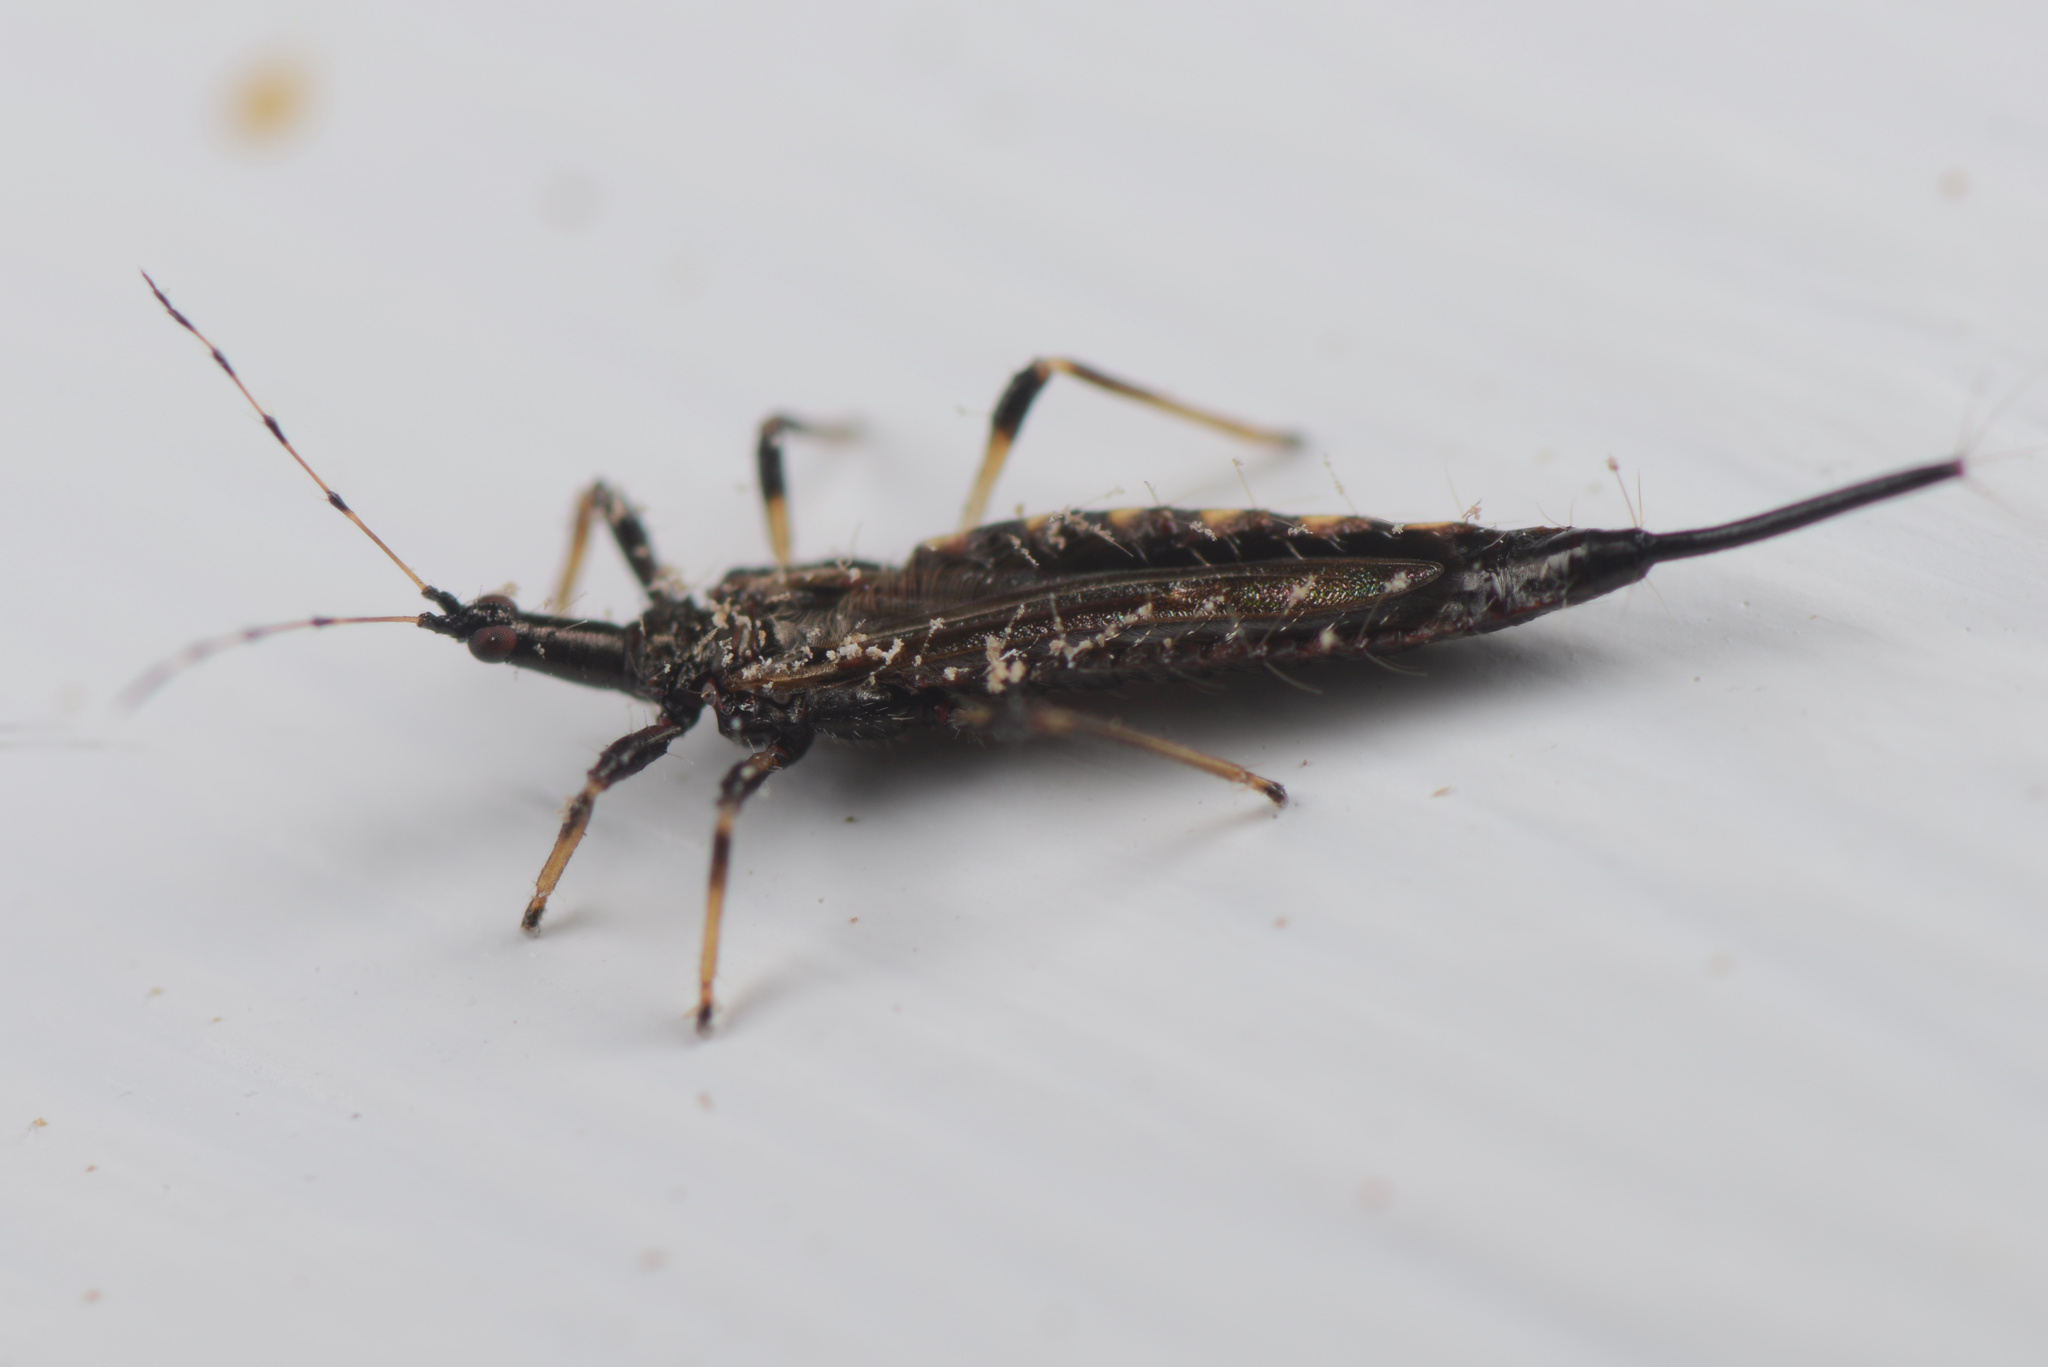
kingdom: Animalia
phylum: Arthropoda
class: Insecta
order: Thysanoptera
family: Phlaeothripidae
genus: Idolothrips
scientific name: Idolothrips spectrum
